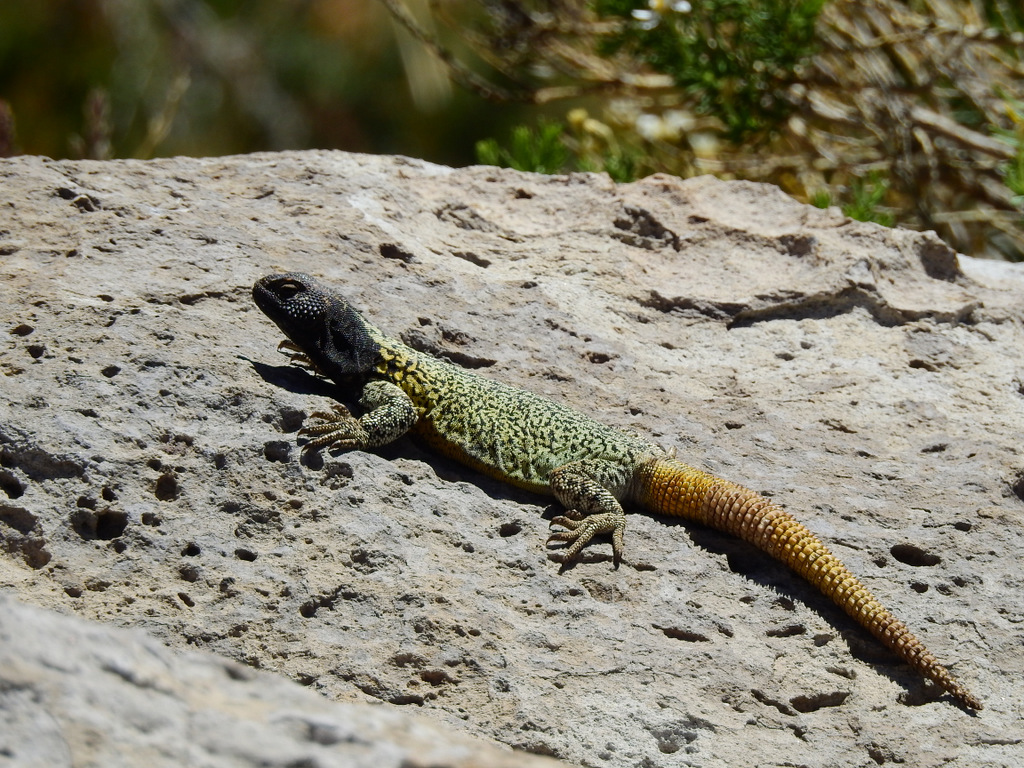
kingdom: Animalia
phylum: Chordata
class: Squamata
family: Liolaemidae
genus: Phymaturus
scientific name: Phymaturus verdugo
